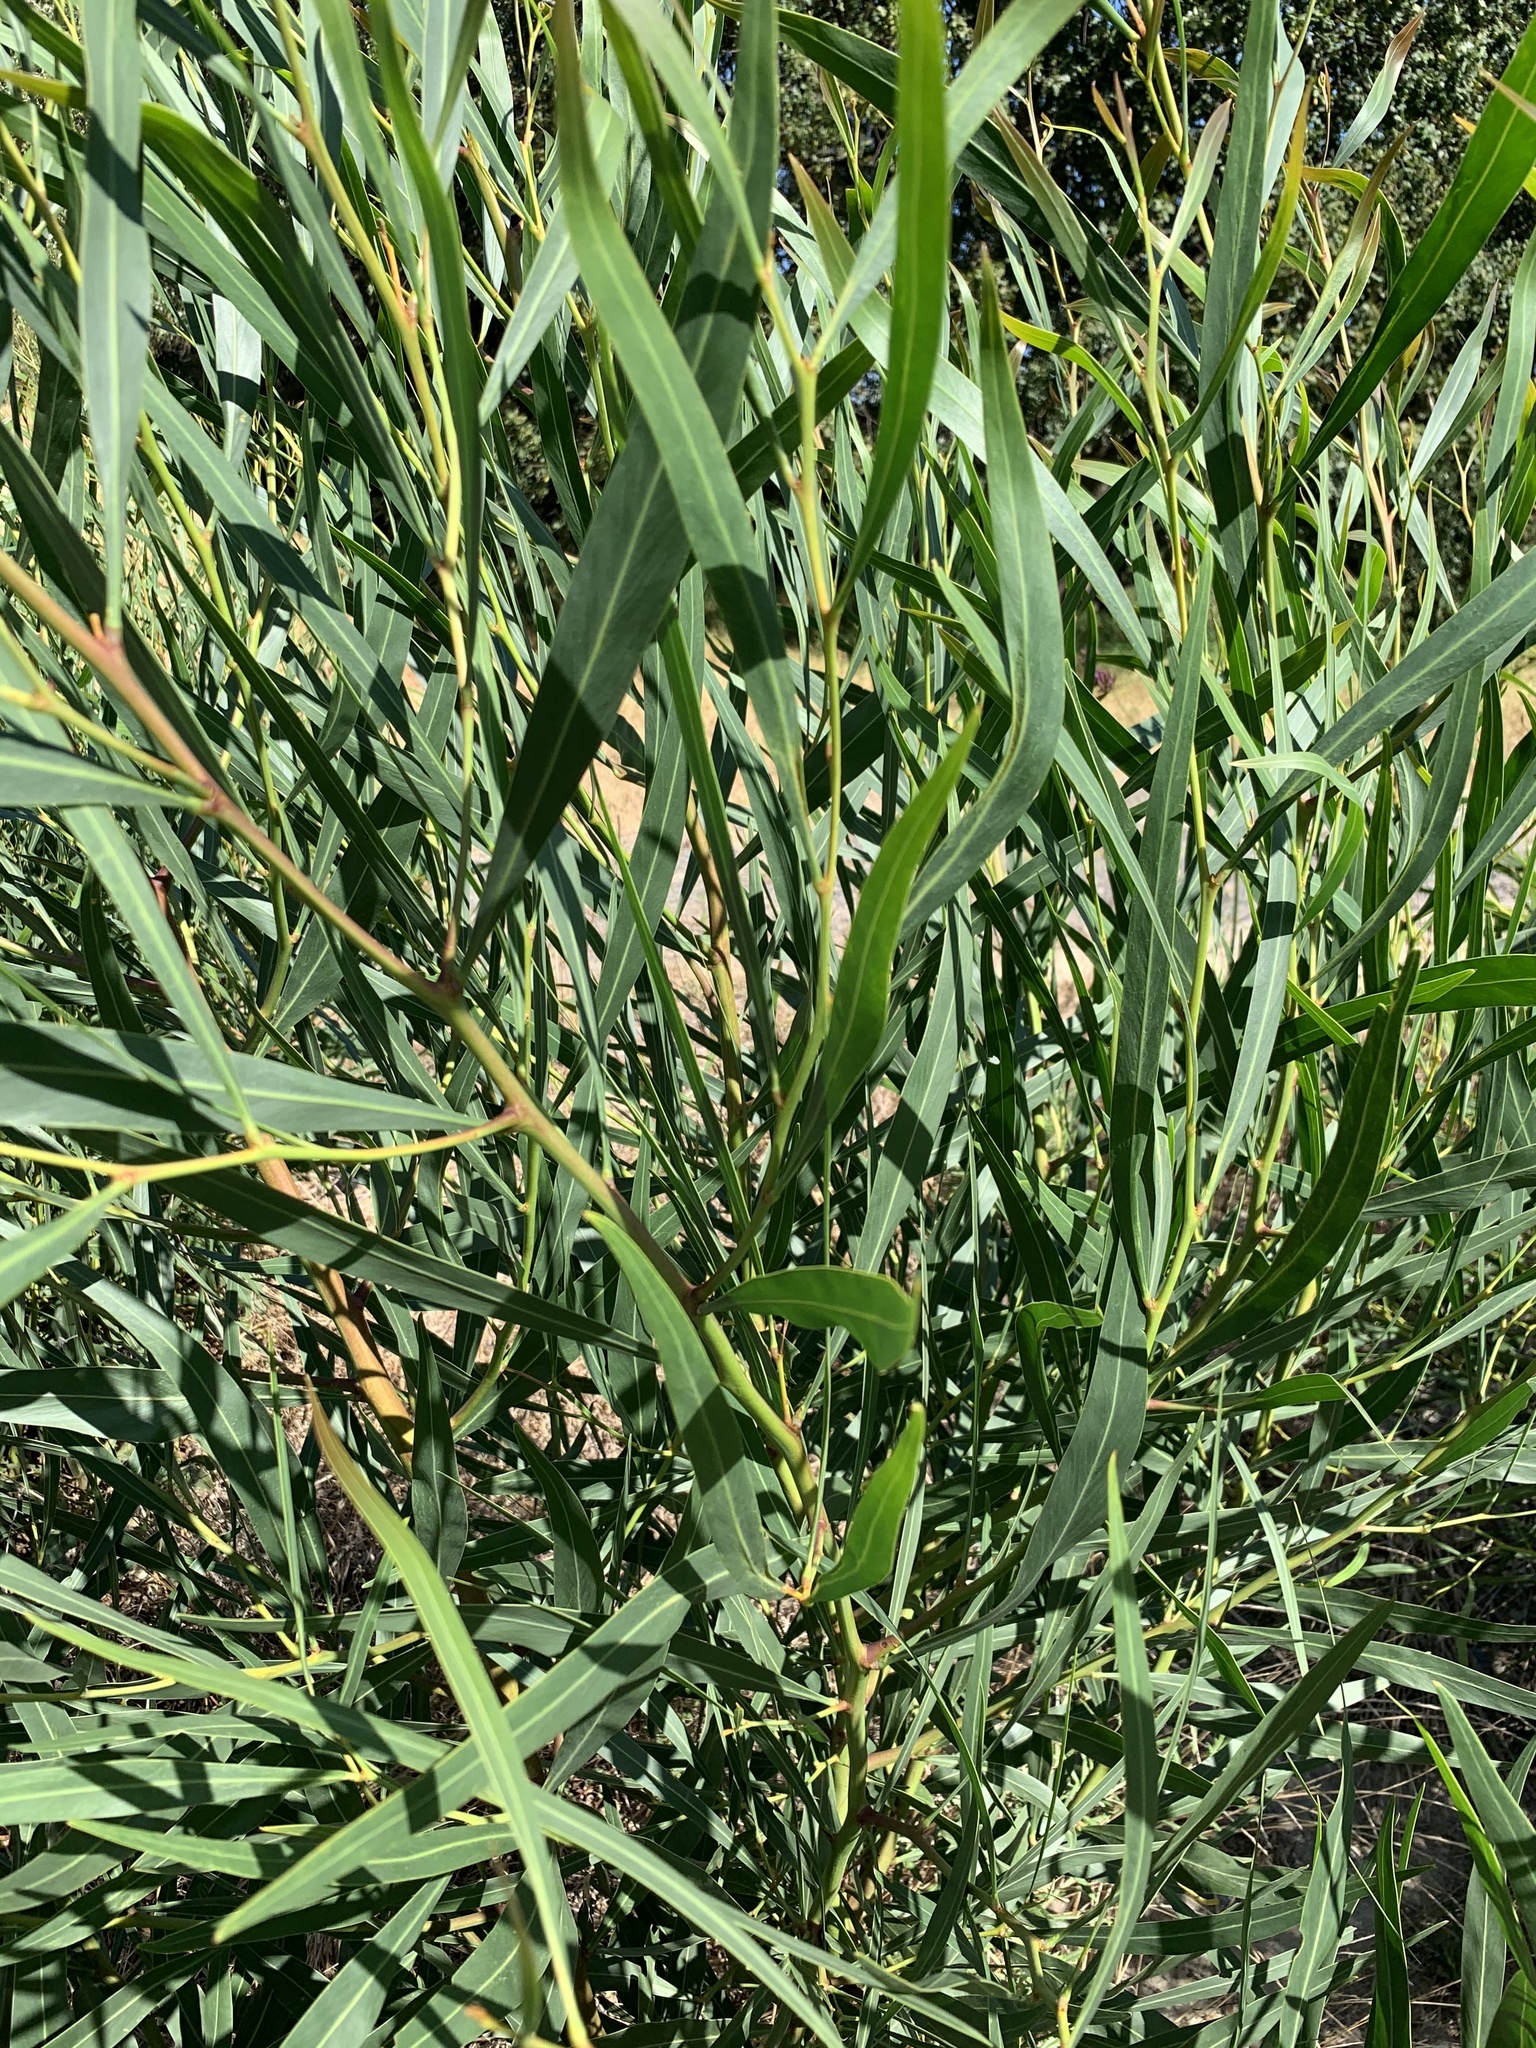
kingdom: Plantae
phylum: Tracheophyta
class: Magnoliopsida
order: Fabales
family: Fabaceae
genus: Acacia
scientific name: Acacia saligna
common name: Orange wattle
